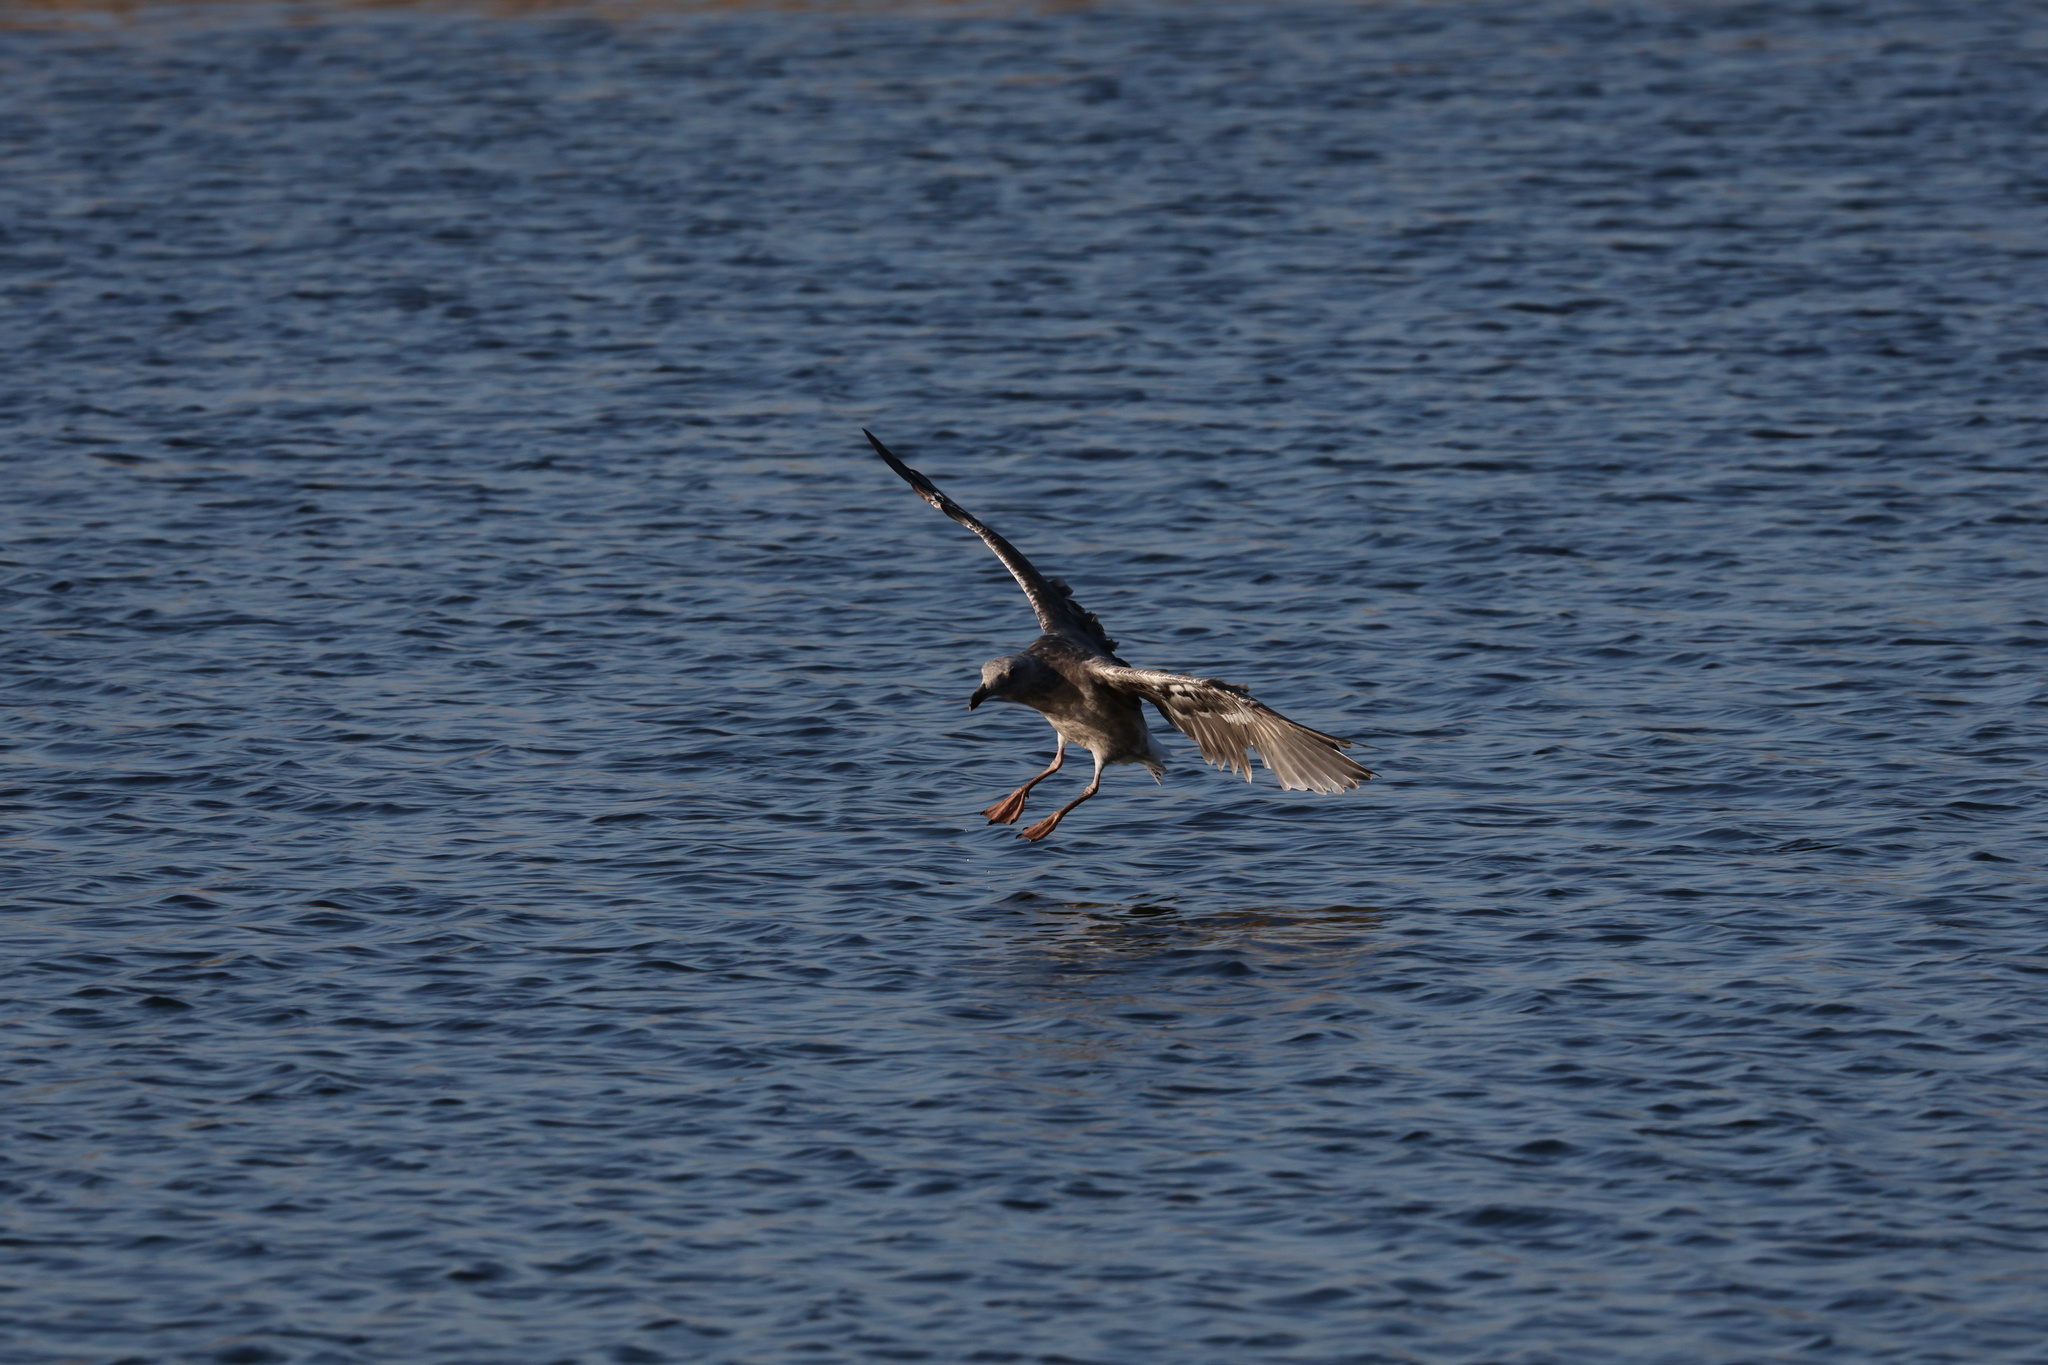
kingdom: Animalia
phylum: Chordata
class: Aves
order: Charadriiformes
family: Laridae
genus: Larus
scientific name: Larus occidentalis
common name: Western gull
